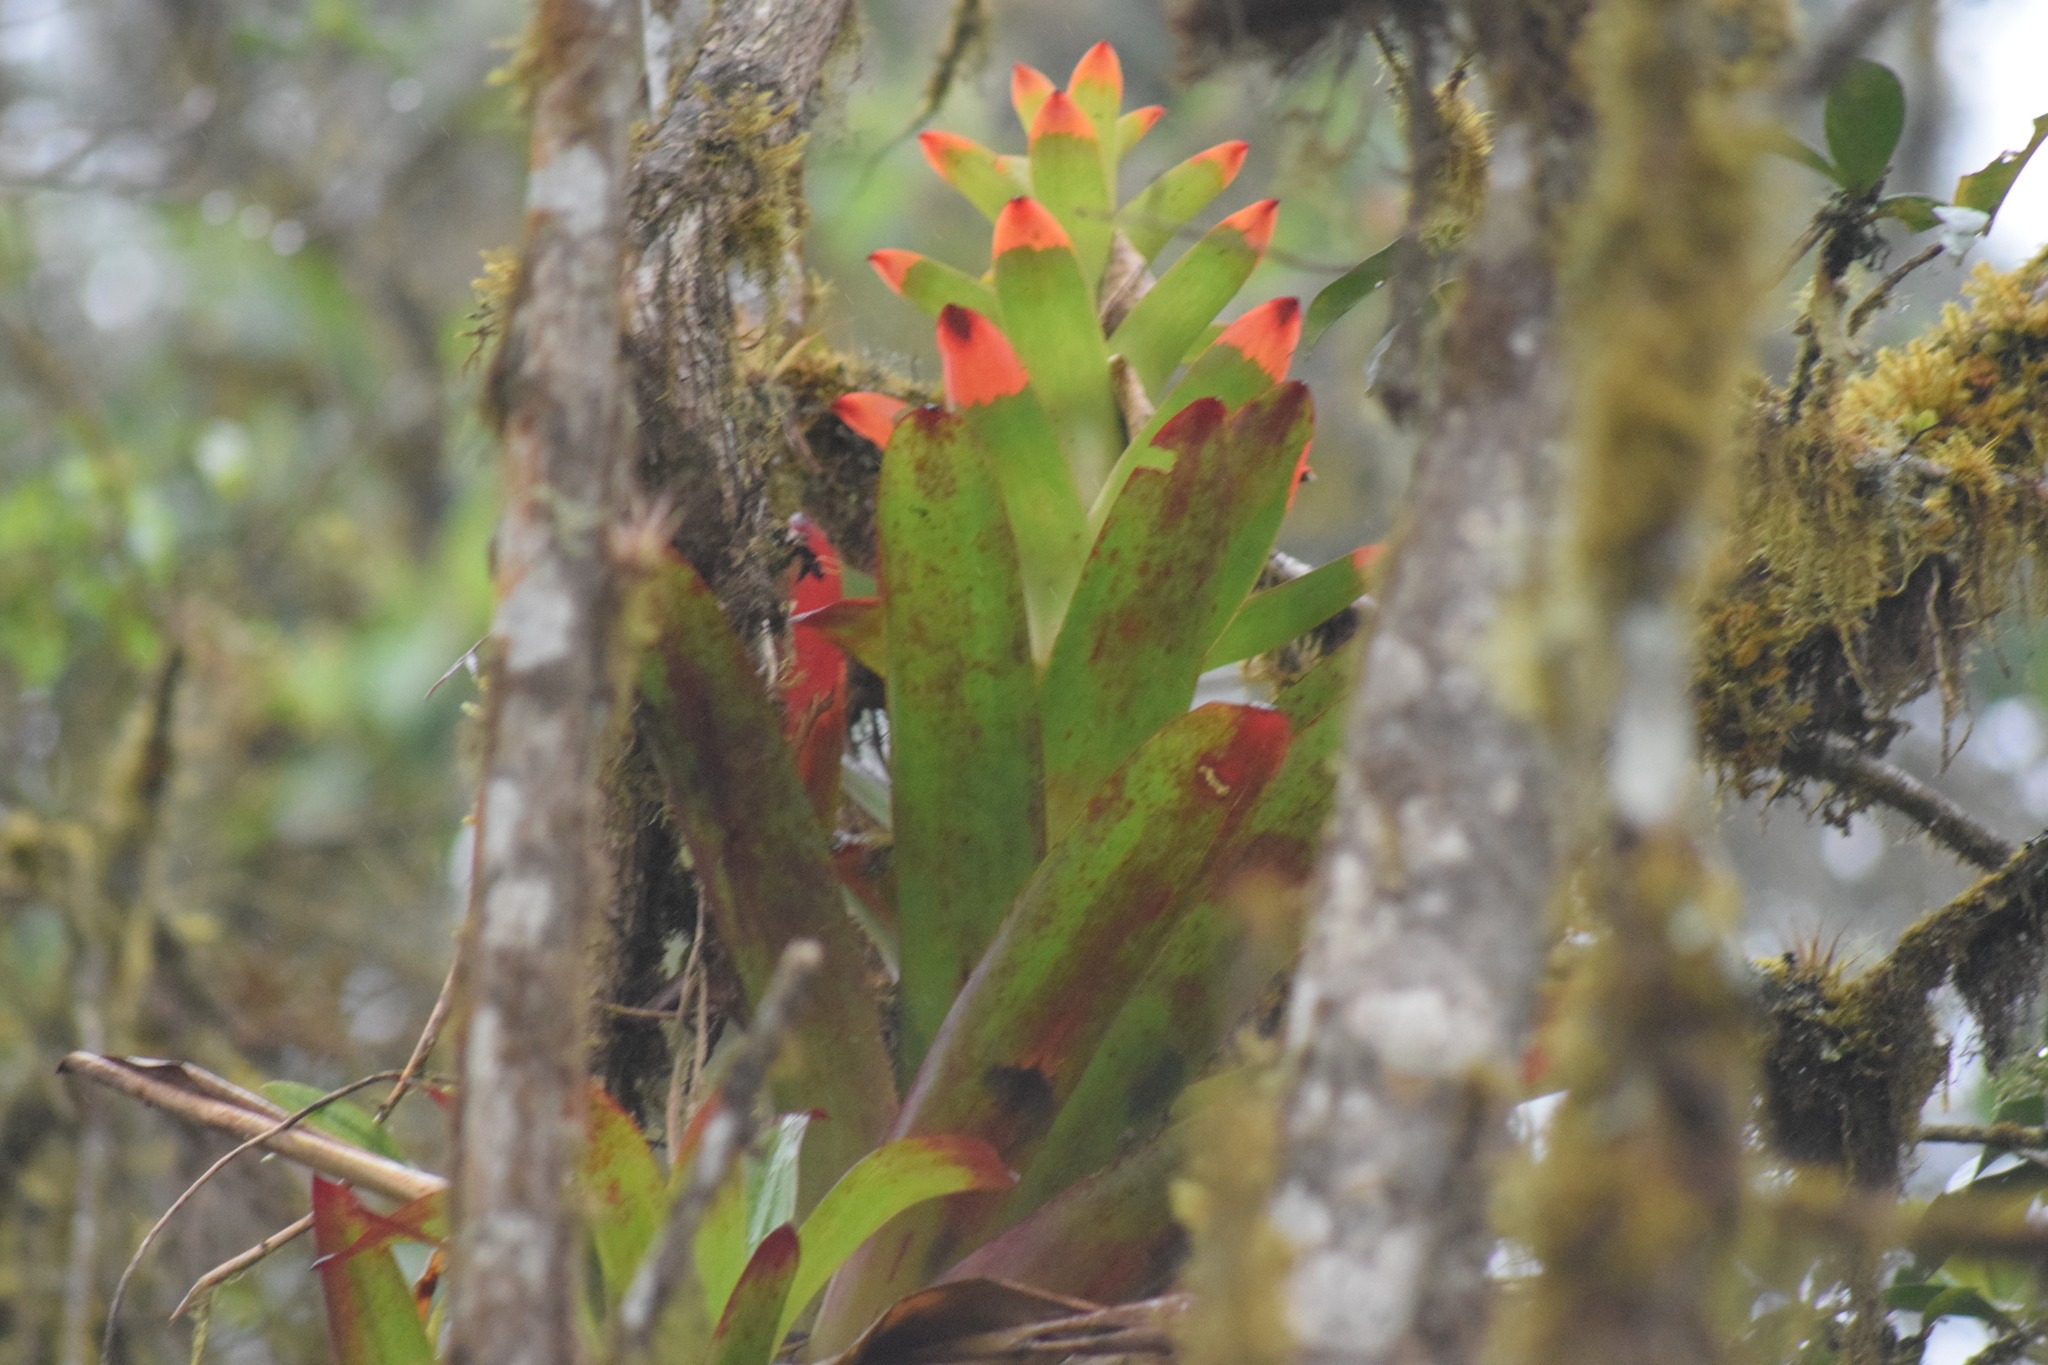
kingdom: Plantae
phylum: Tracheophyta
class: Liliopsida
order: Poales
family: Bromeliaceae
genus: Guzmania
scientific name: Guzmania gloriosa
